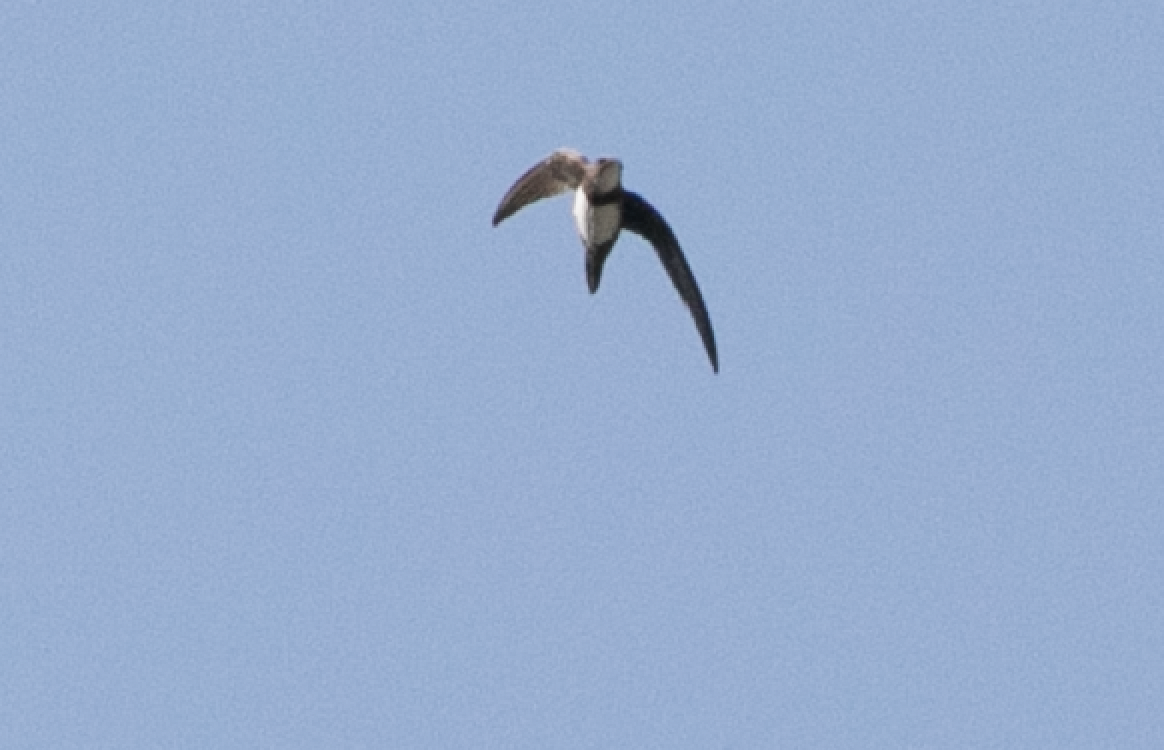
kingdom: Animalia
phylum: Chordata
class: Aves
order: Apodiformes
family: Apodidae
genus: Tachymarptis
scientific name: Tachymarptis melba
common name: Alpine swift
